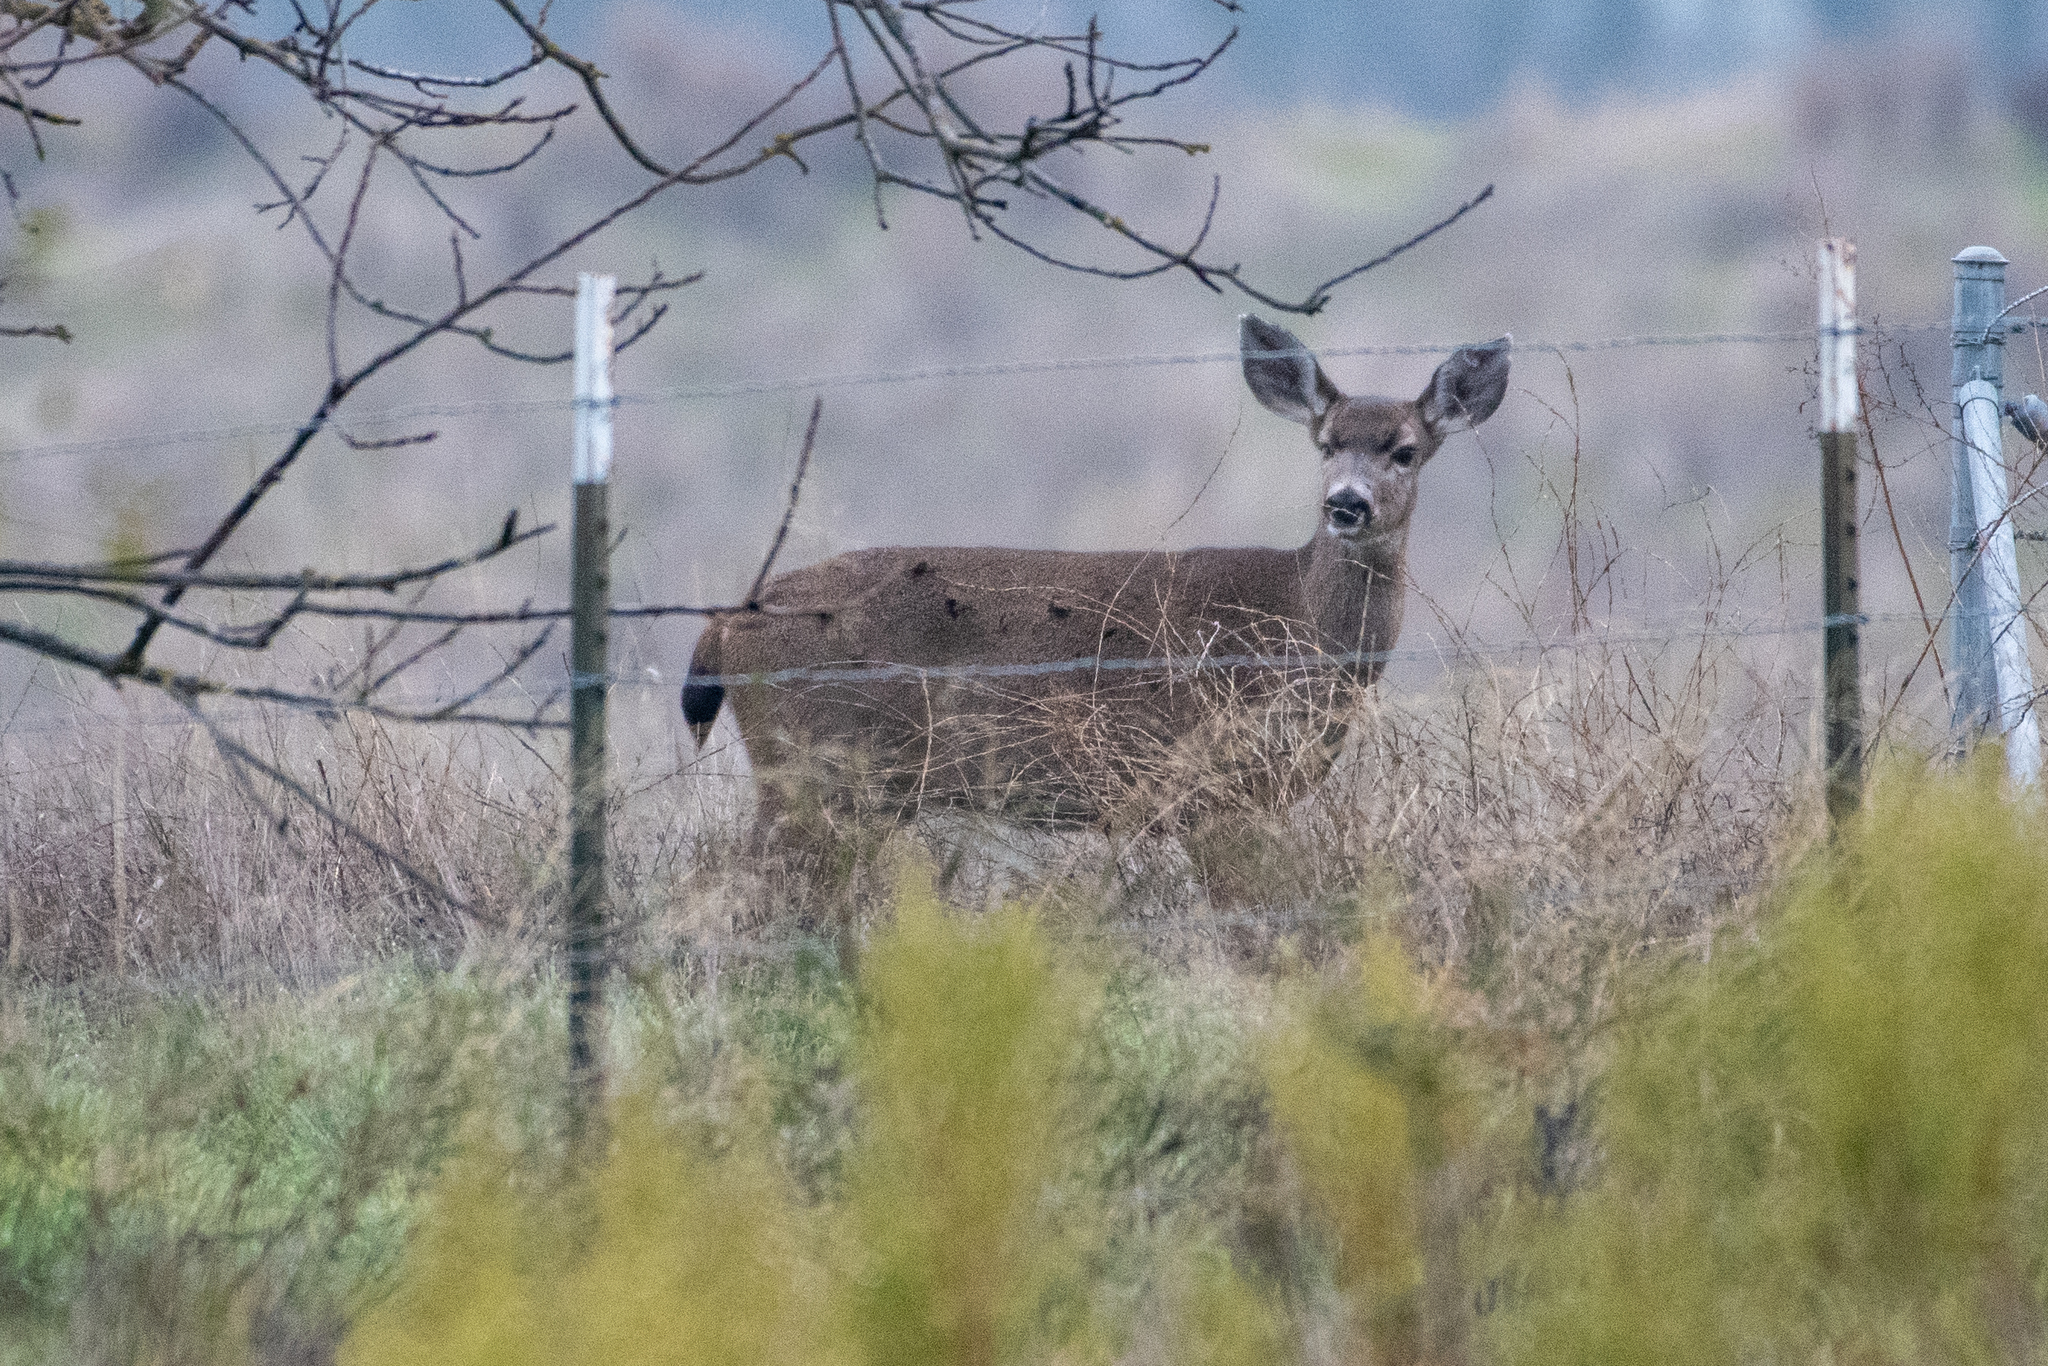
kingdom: Animalia
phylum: Chordata
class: Mammalia
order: Artiodactyla
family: Cervidae
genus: Odocoileus
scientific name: Odocoileus hemionus
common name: Mule deer
